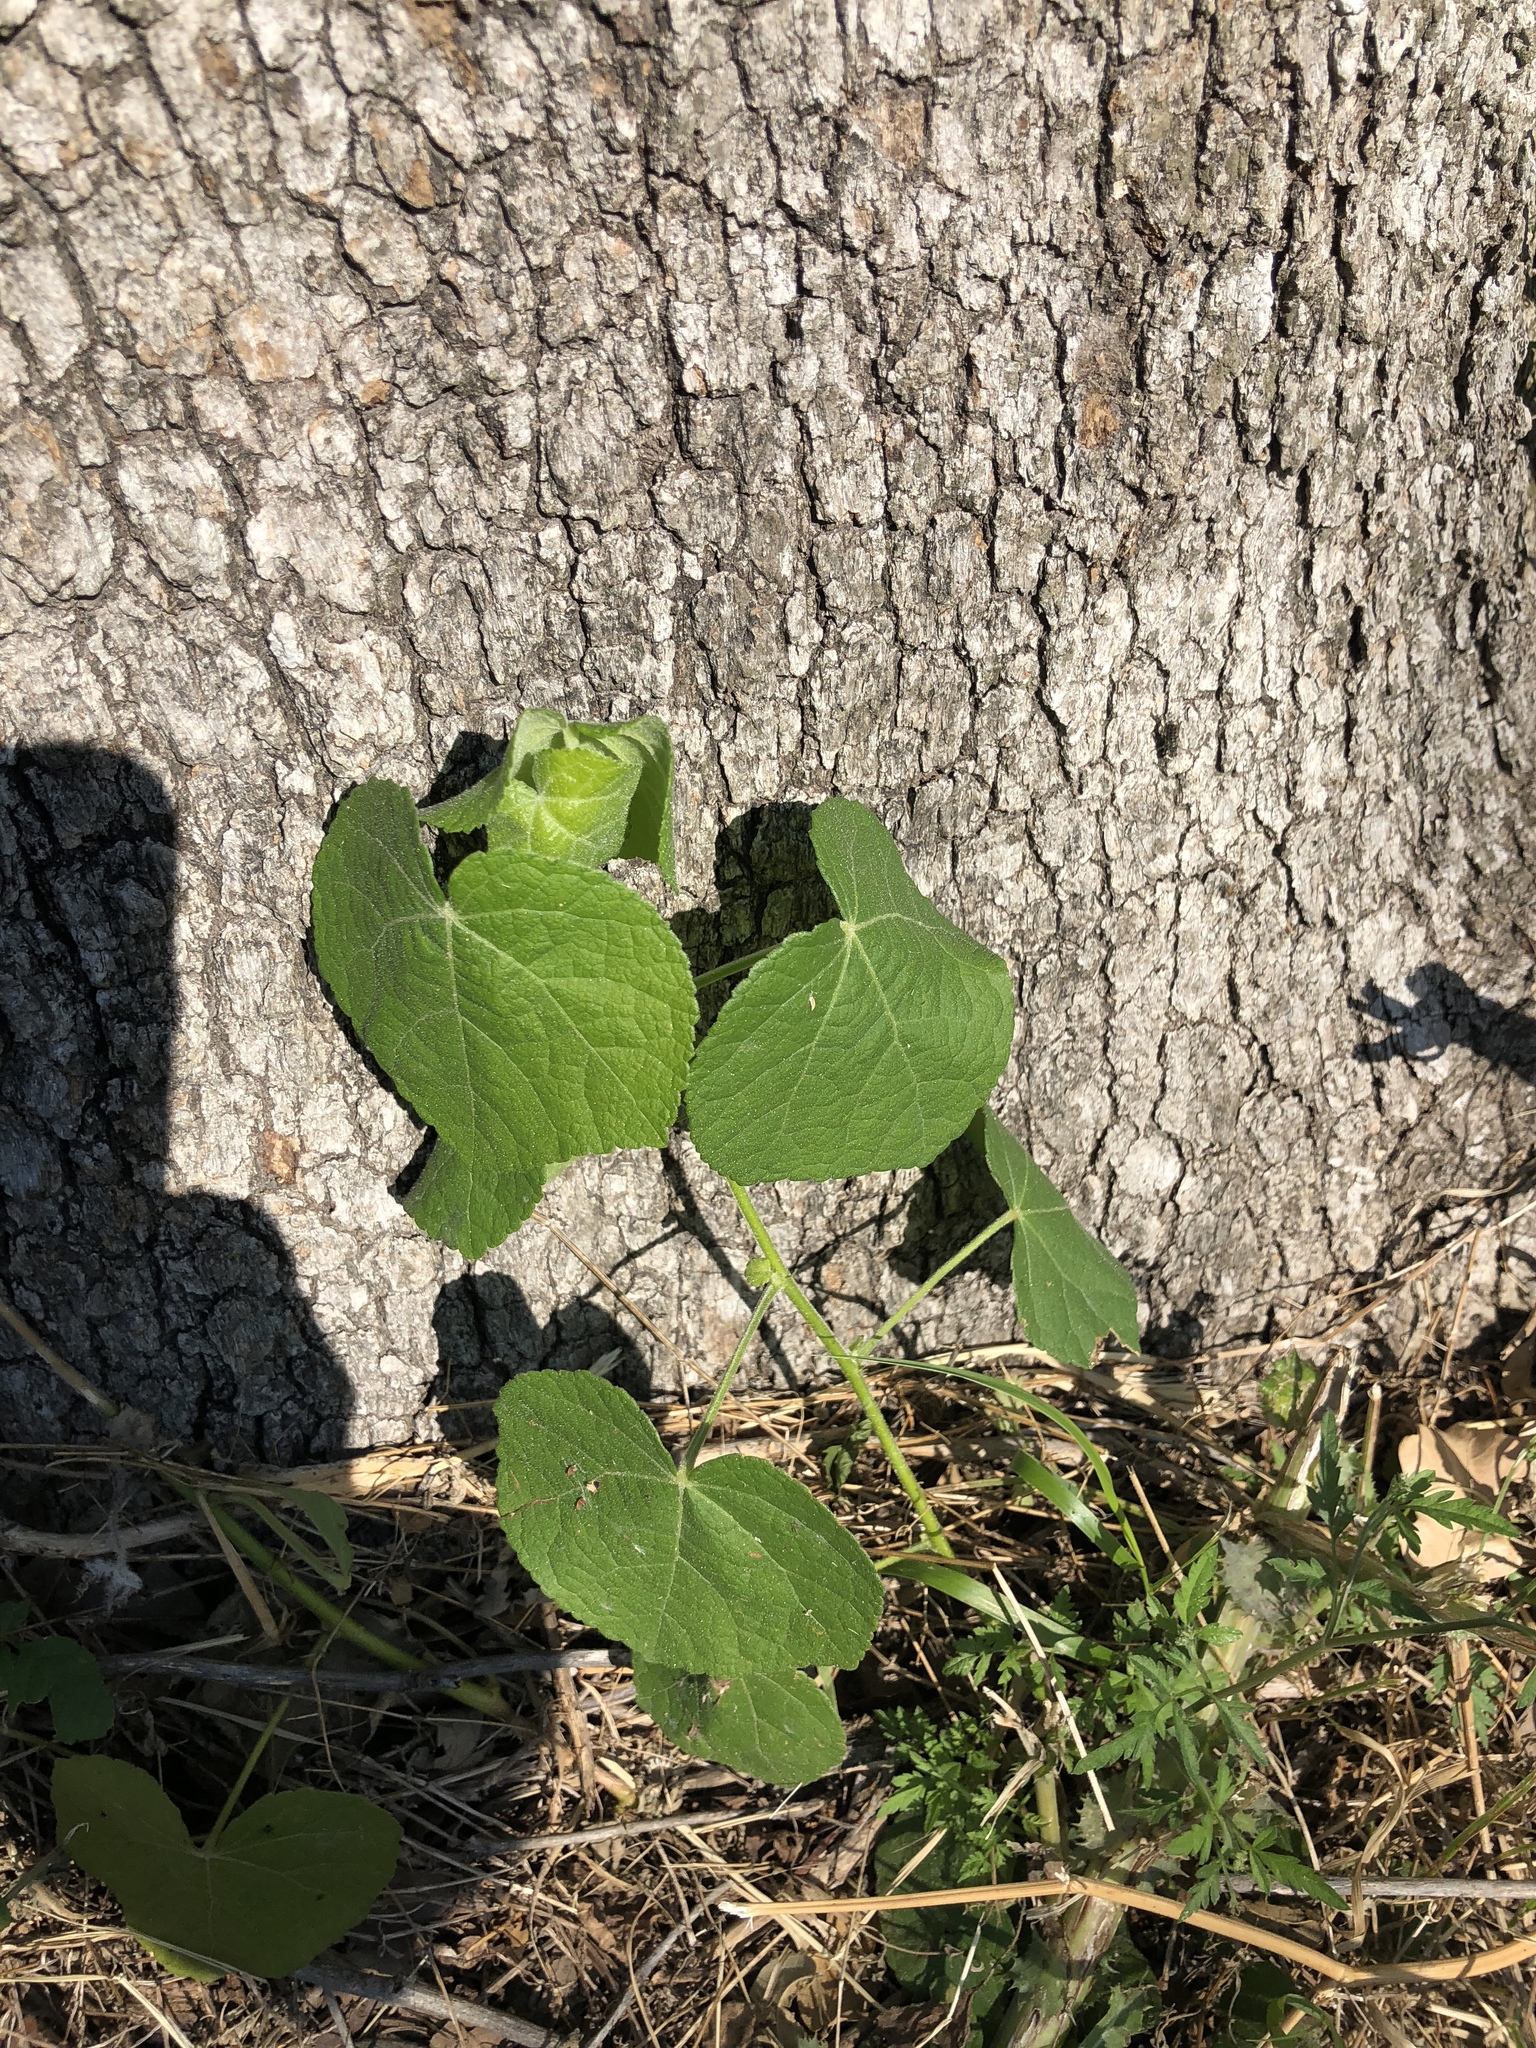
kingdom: Plantae
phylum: Tracheophyta
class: Magnoliopsida
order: Malvales
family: Malvaceae
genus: Malvaviscus
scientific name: Malvaviscus arboreus
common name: Wax mallow
